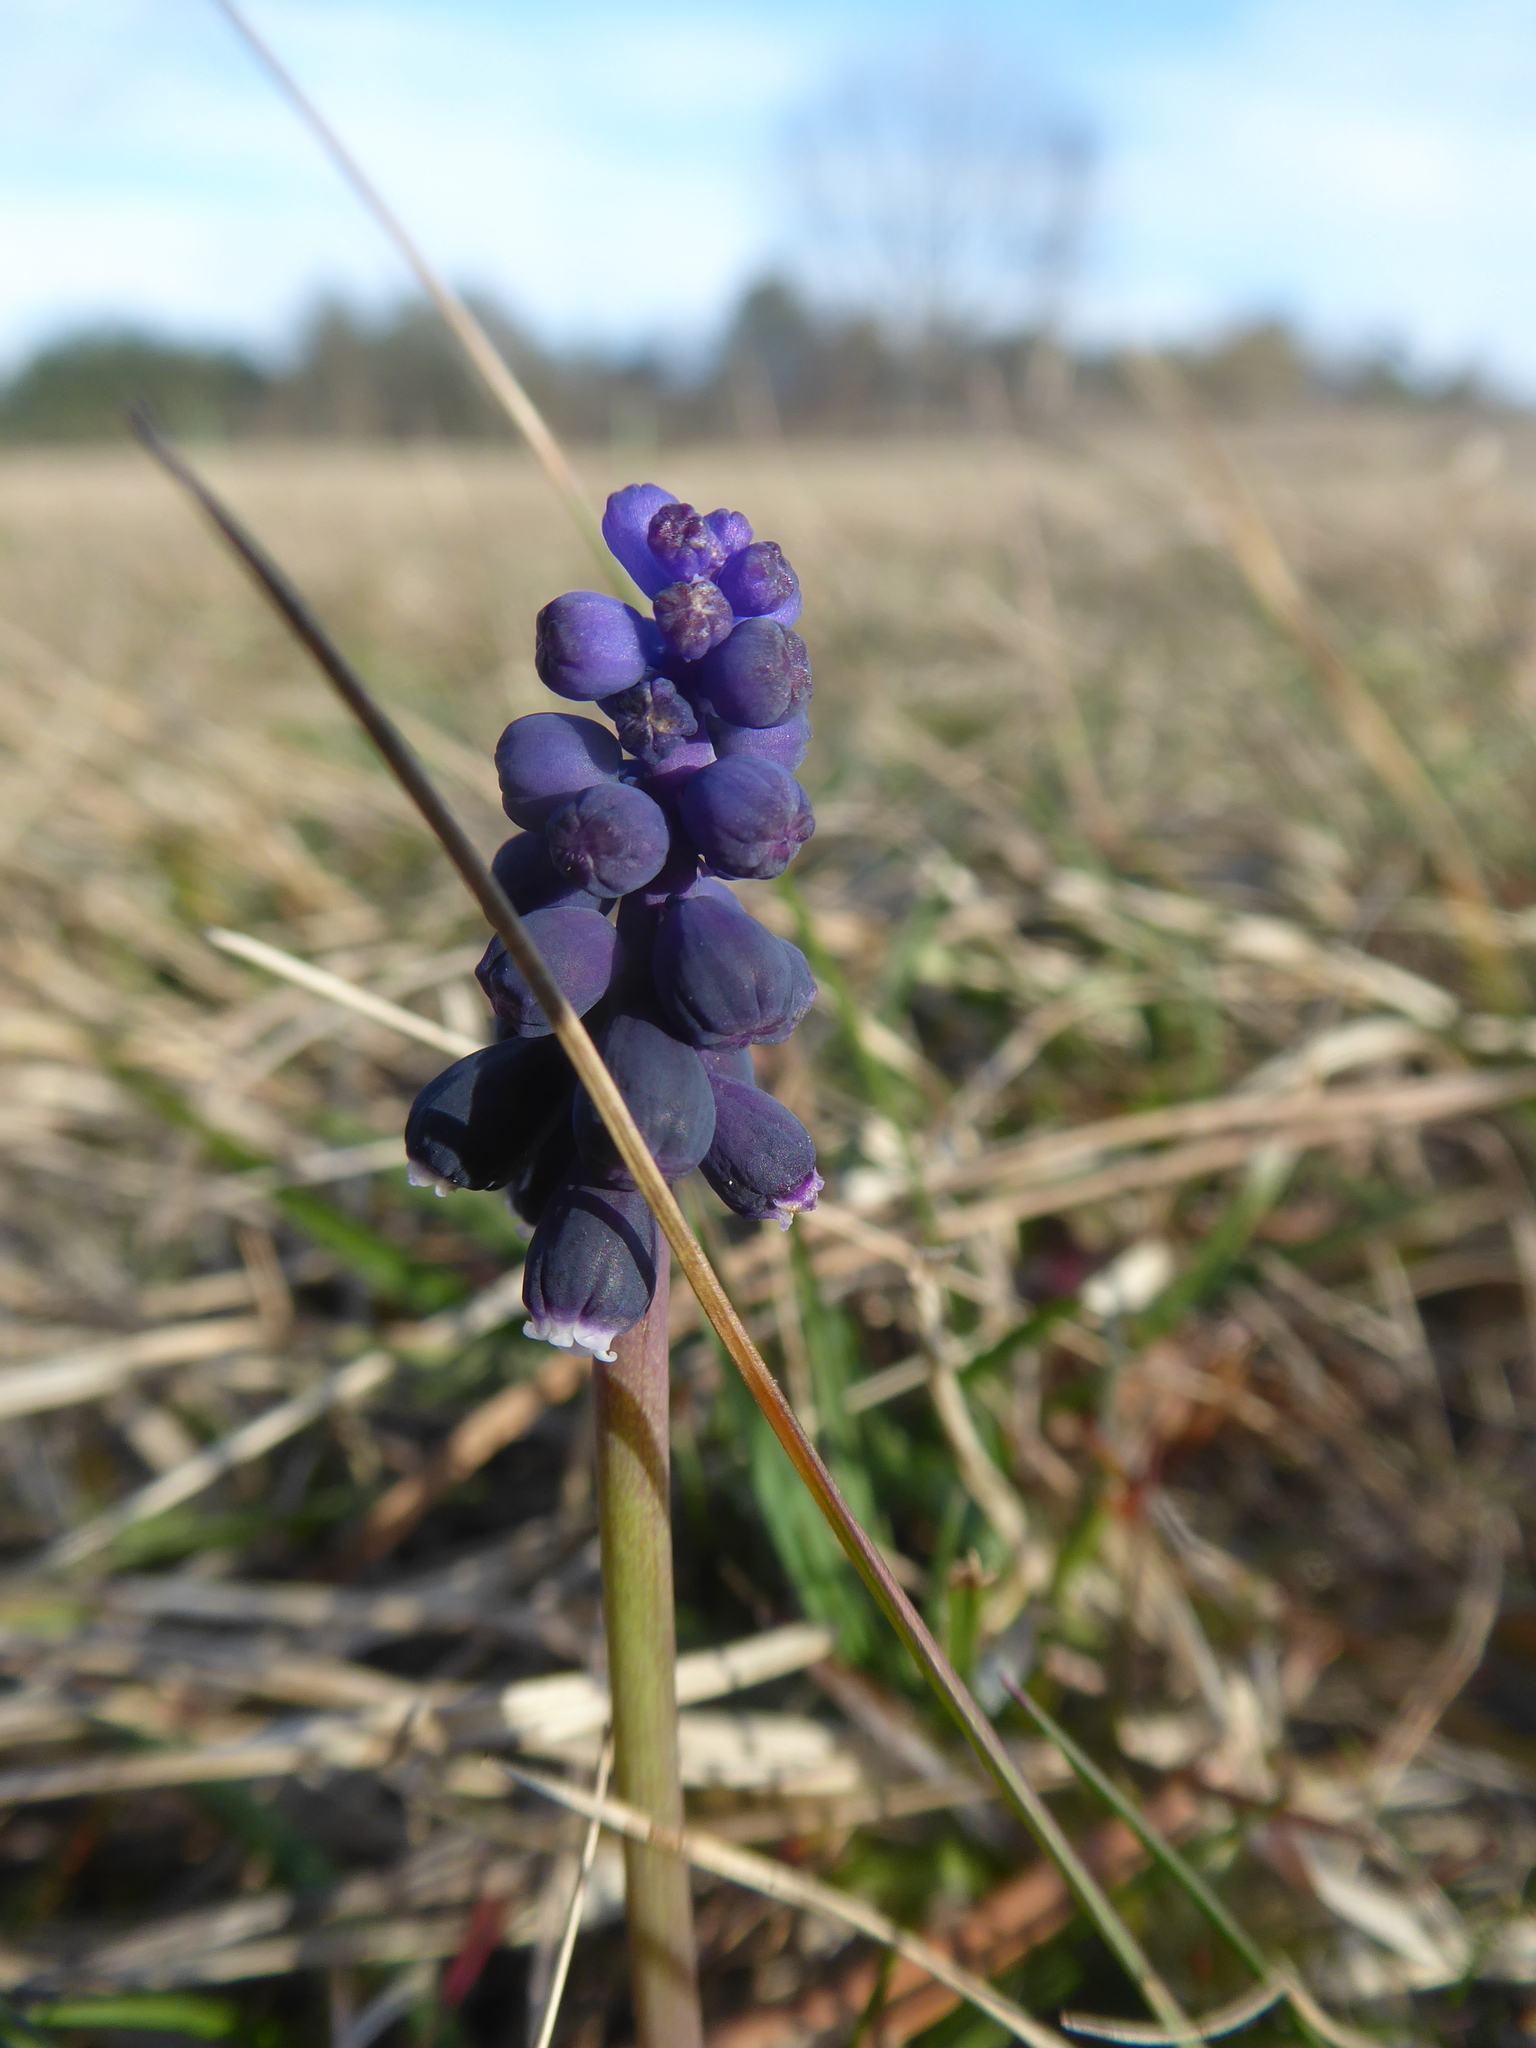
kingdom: Plantae
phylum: Tracheophyta
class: Liliopsida
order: Asparagales
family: Asparagaceae
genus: Muscari
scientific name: Muscari neglectum
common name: Grape-hyacinth
